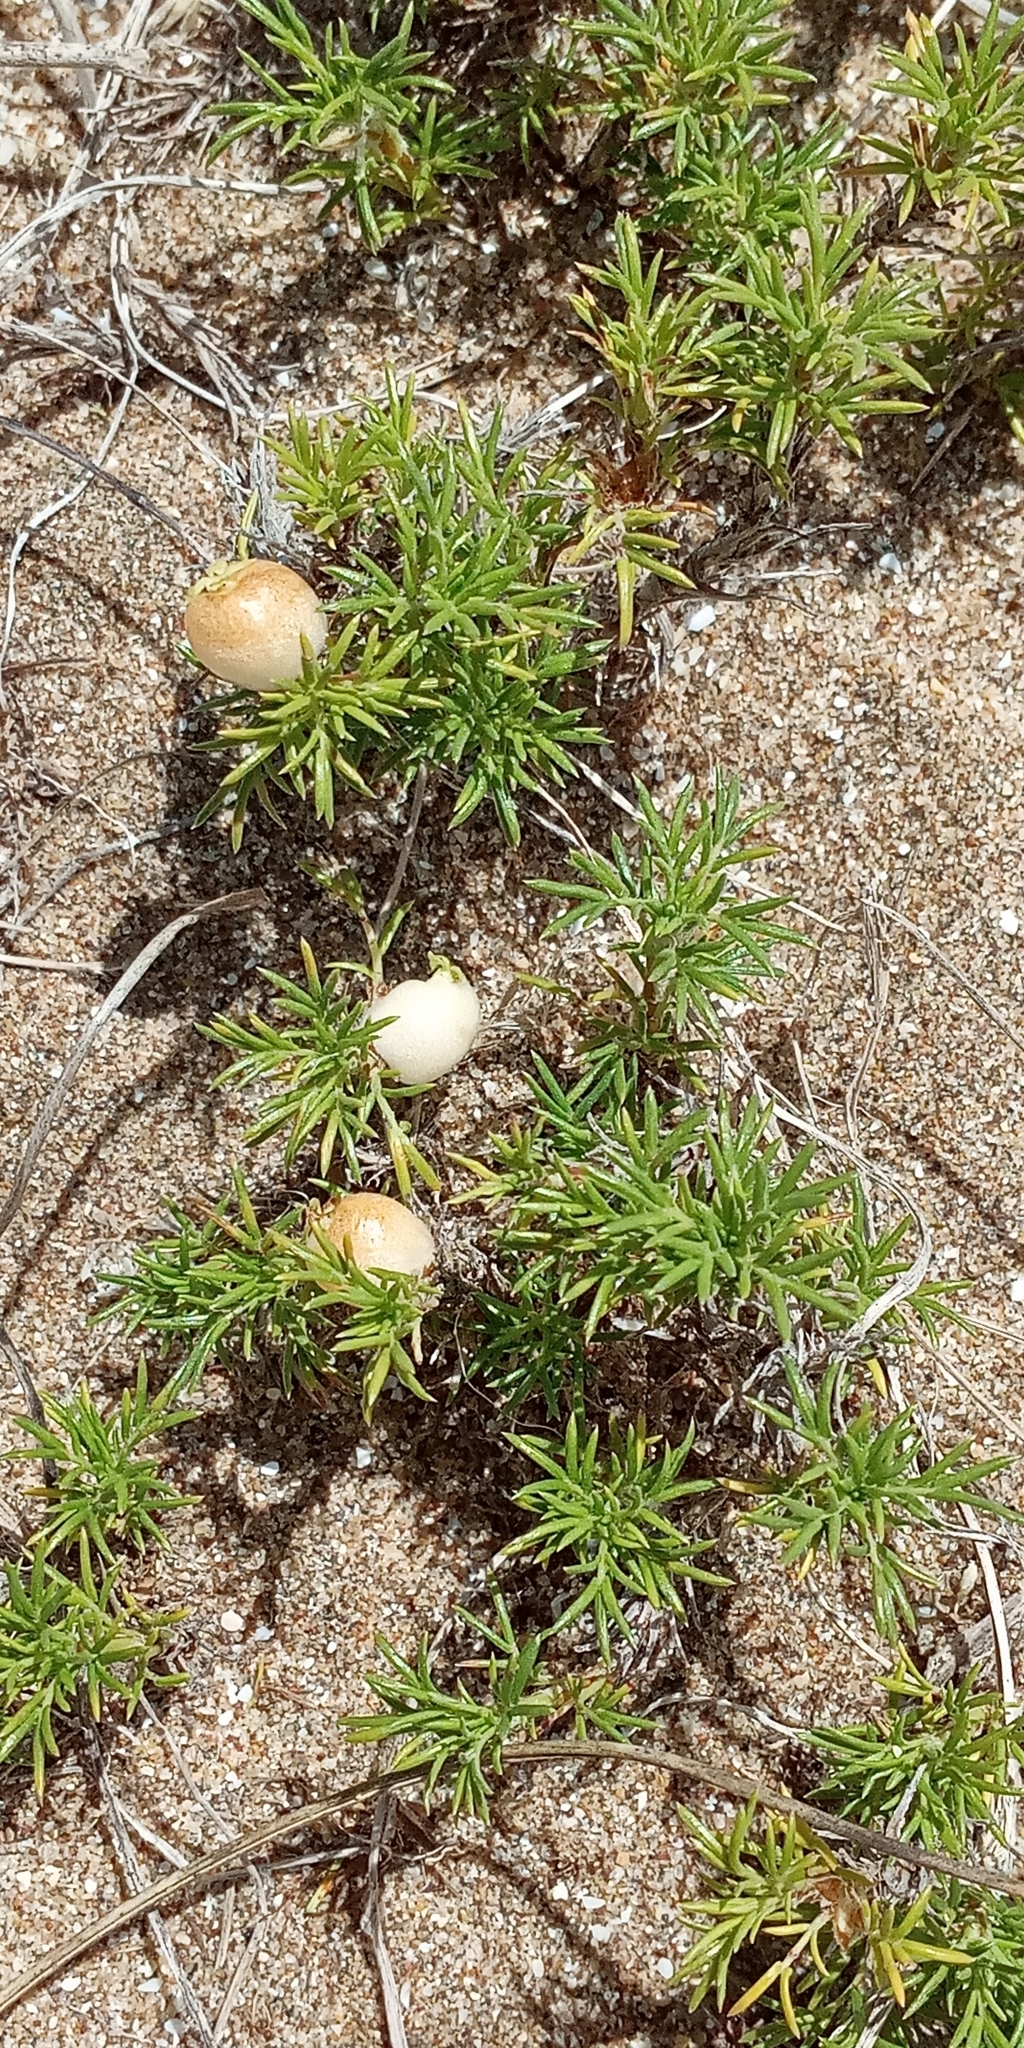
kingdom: Plantae
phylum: Tracheophyta
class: Magnoliopsida
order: Rosales
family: Rosaceae
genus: Margyricarpus
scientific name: Margyricarpus pinnatus
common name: Pearlfruit
